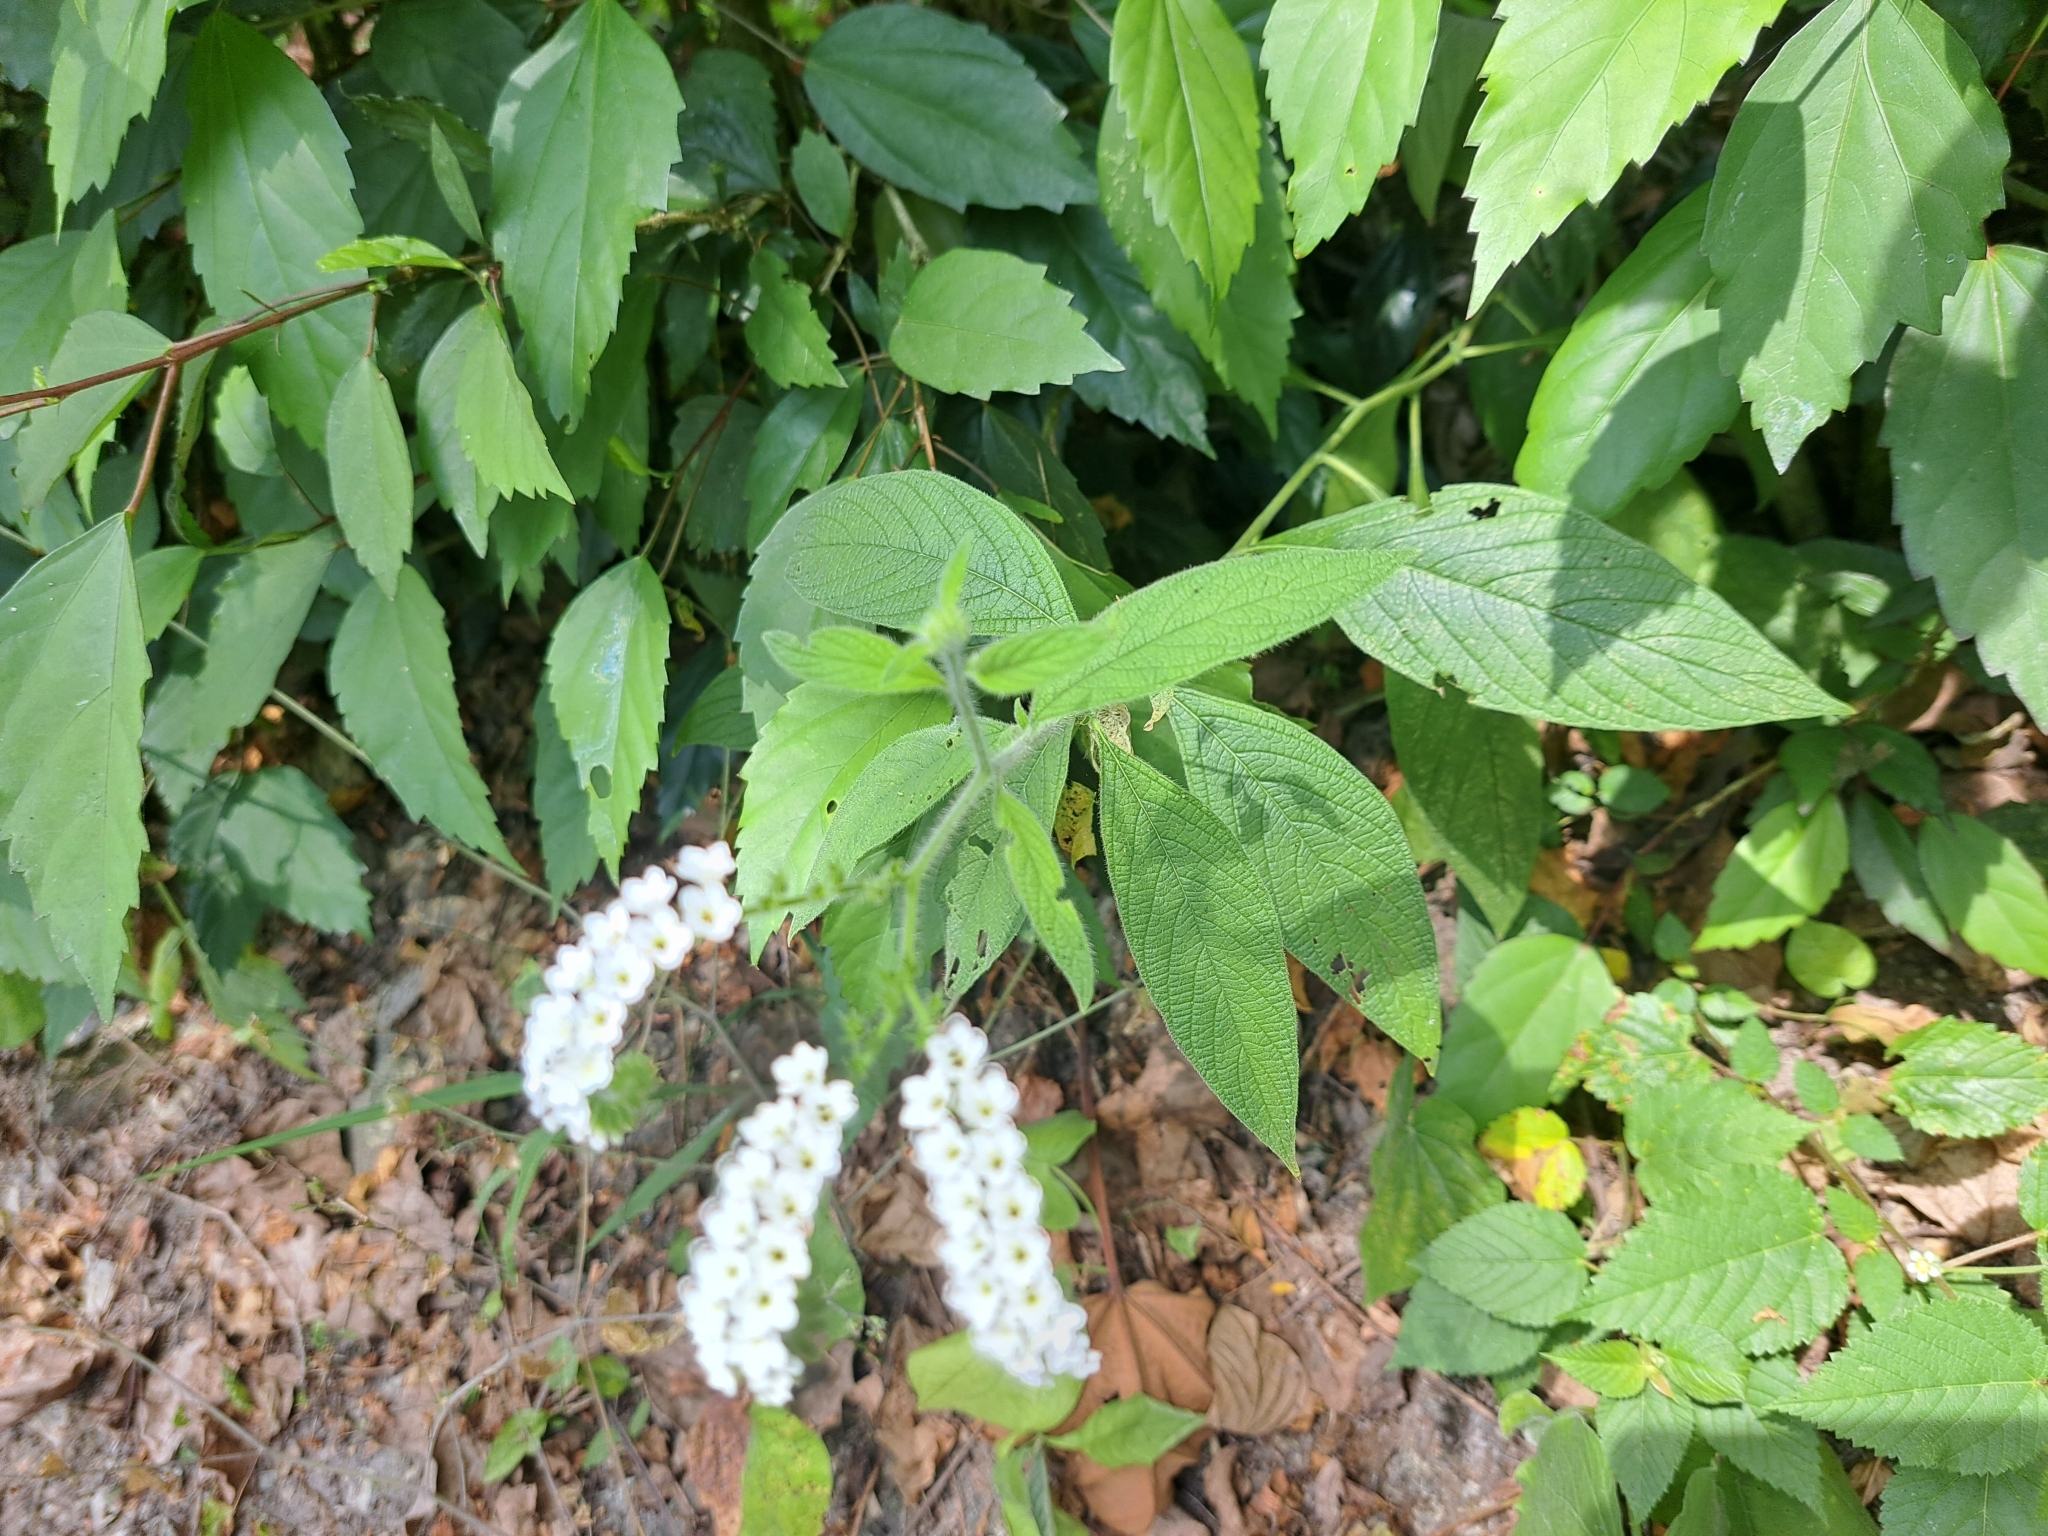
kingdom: Plantae
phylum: Tracheophyta
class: Magnoliopsida
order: Boraginales
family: Heliotropiaceae
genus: Heliotropium
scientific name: Heliotropium rufipilum
